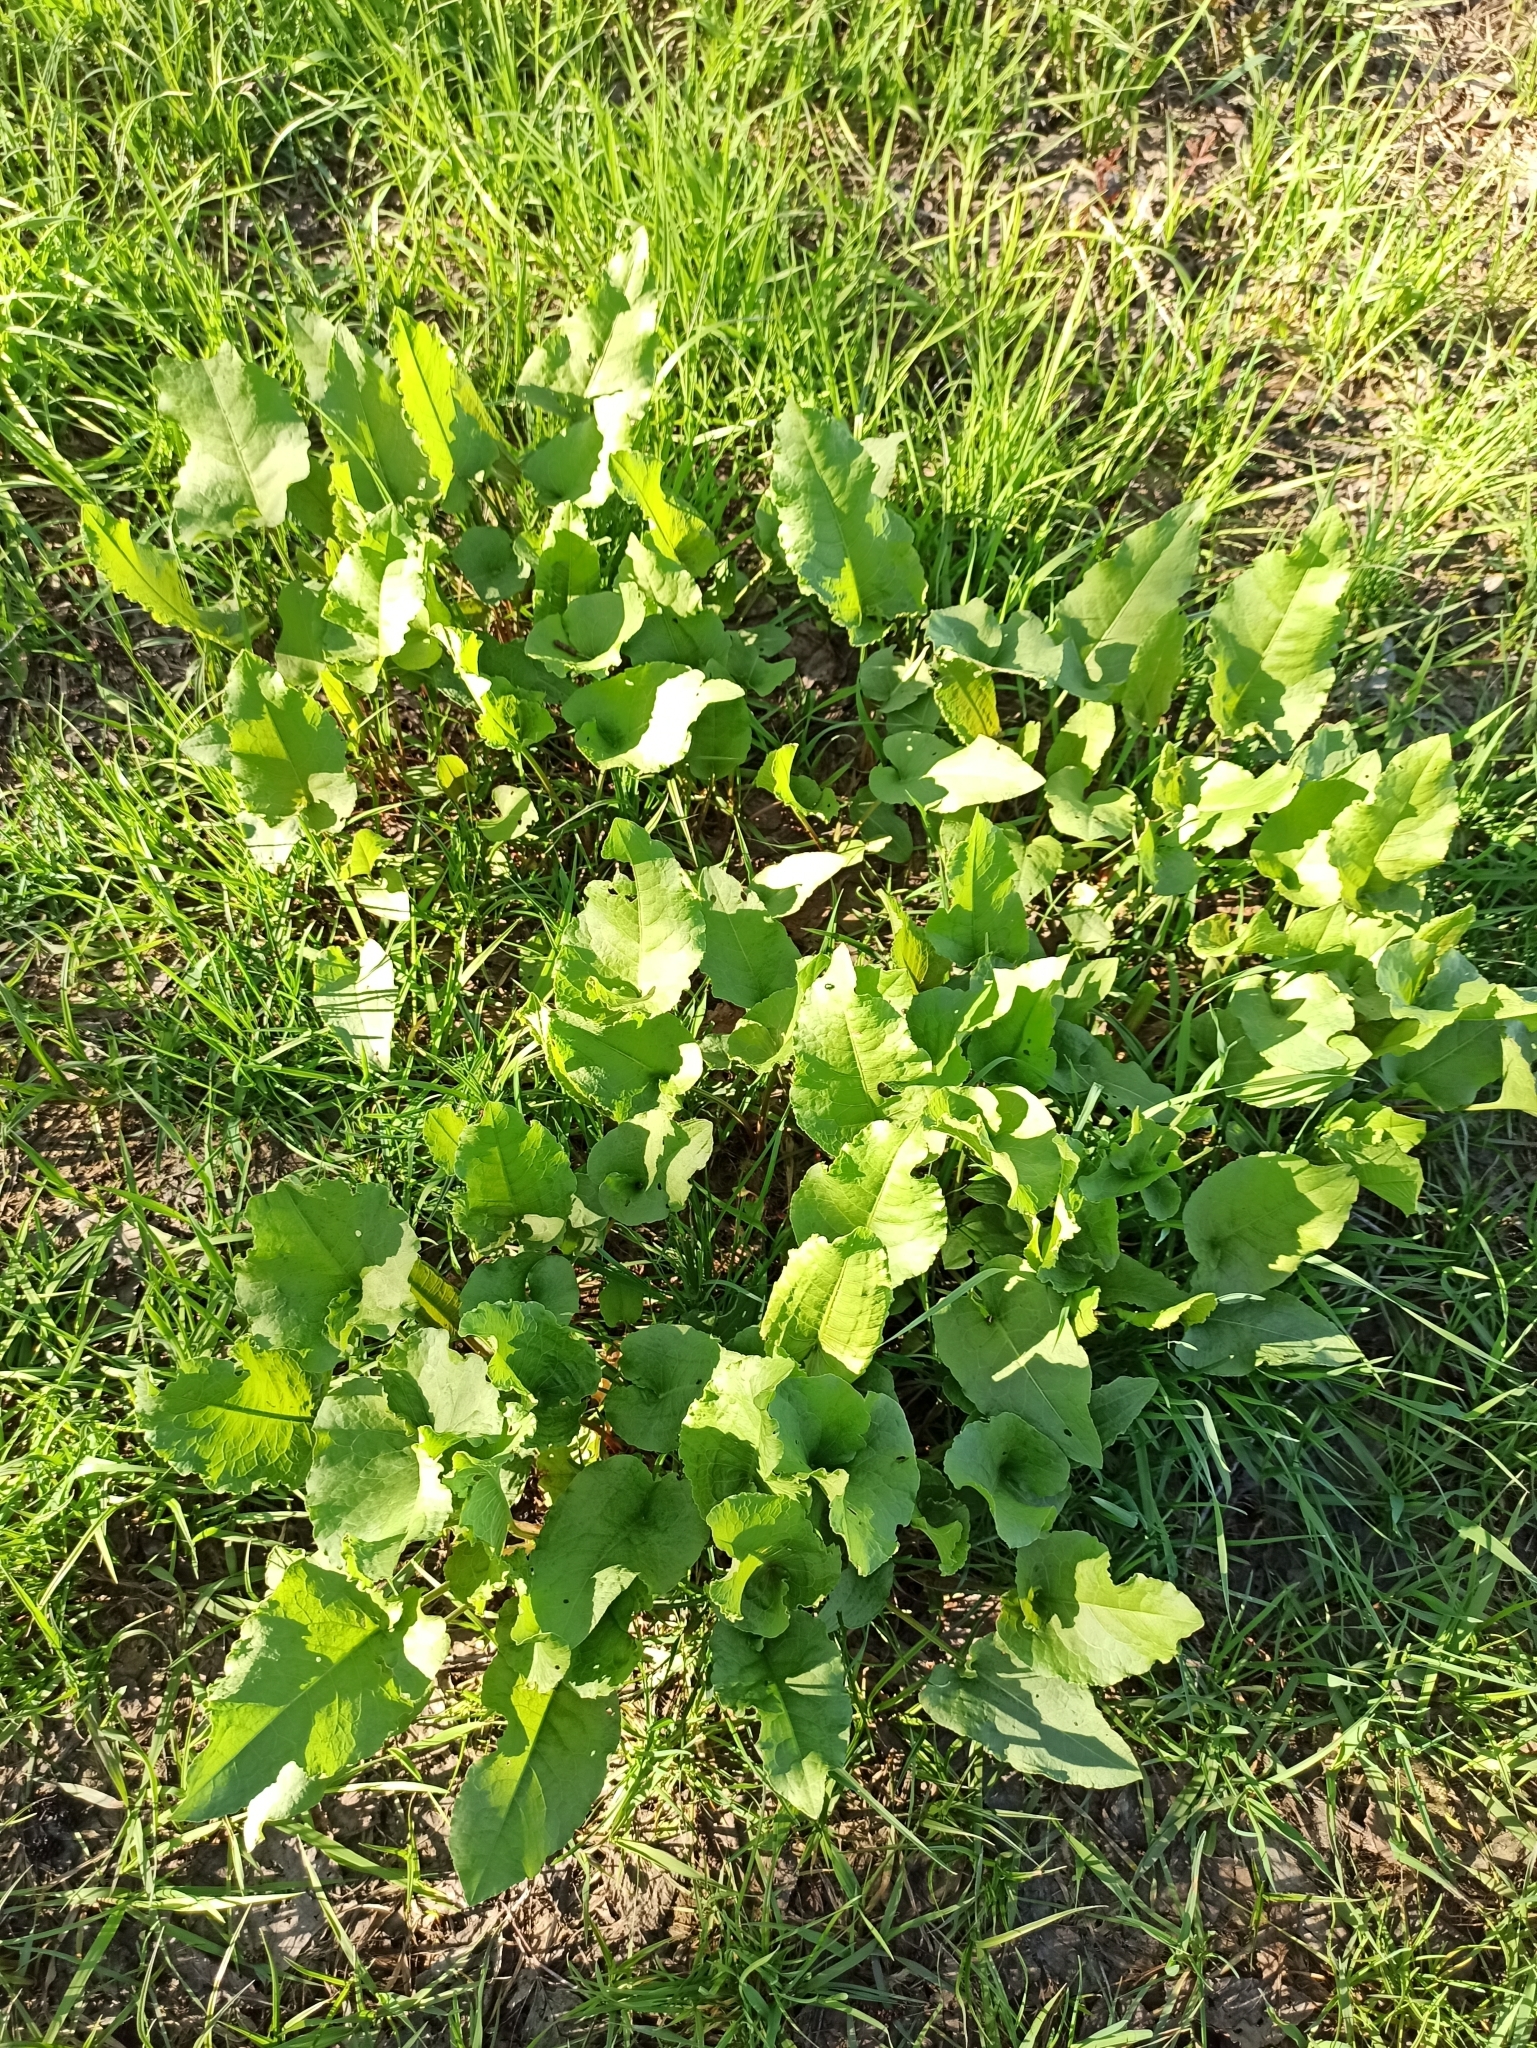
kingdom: Plantae
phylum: Tracheophyta
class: Magnoliopsida
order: Caryophyllales
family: Polygonaceae
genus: Rumex
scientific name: Rumex confertus
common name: Russian dock
